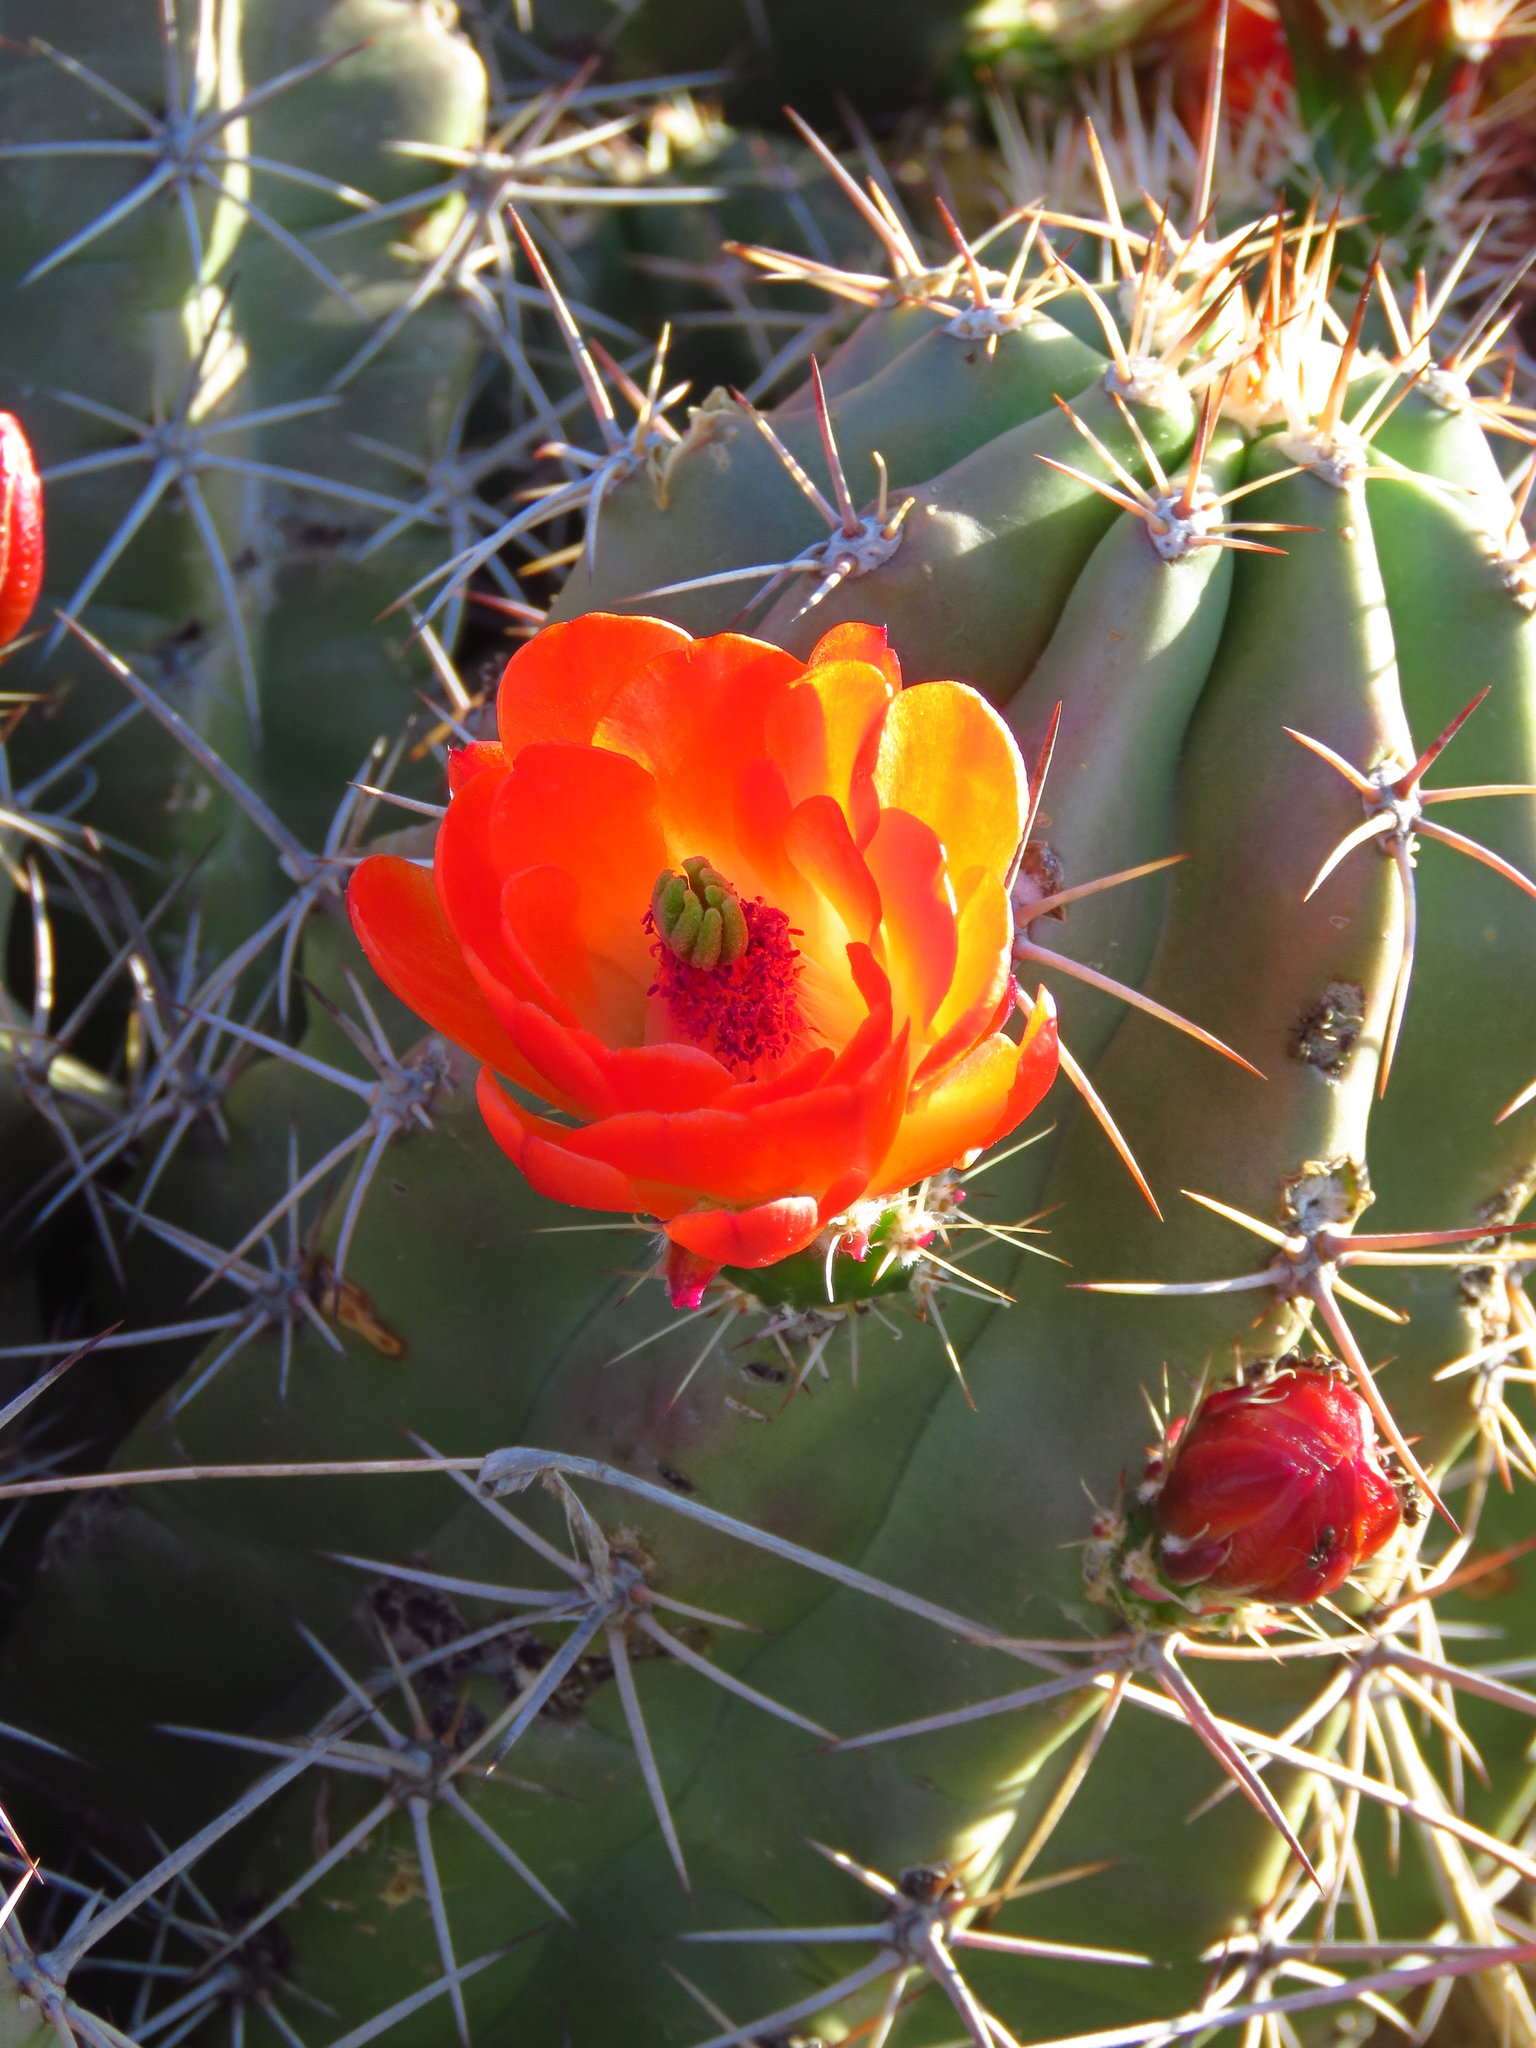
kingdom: Plantae
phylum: Tracheophyta
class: Magnoliopsida
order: Caryophyllales
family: Cactaceae
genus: Echinocereus
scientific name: Echinocereus coccineus
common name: Scarlet hedgehog cactus
